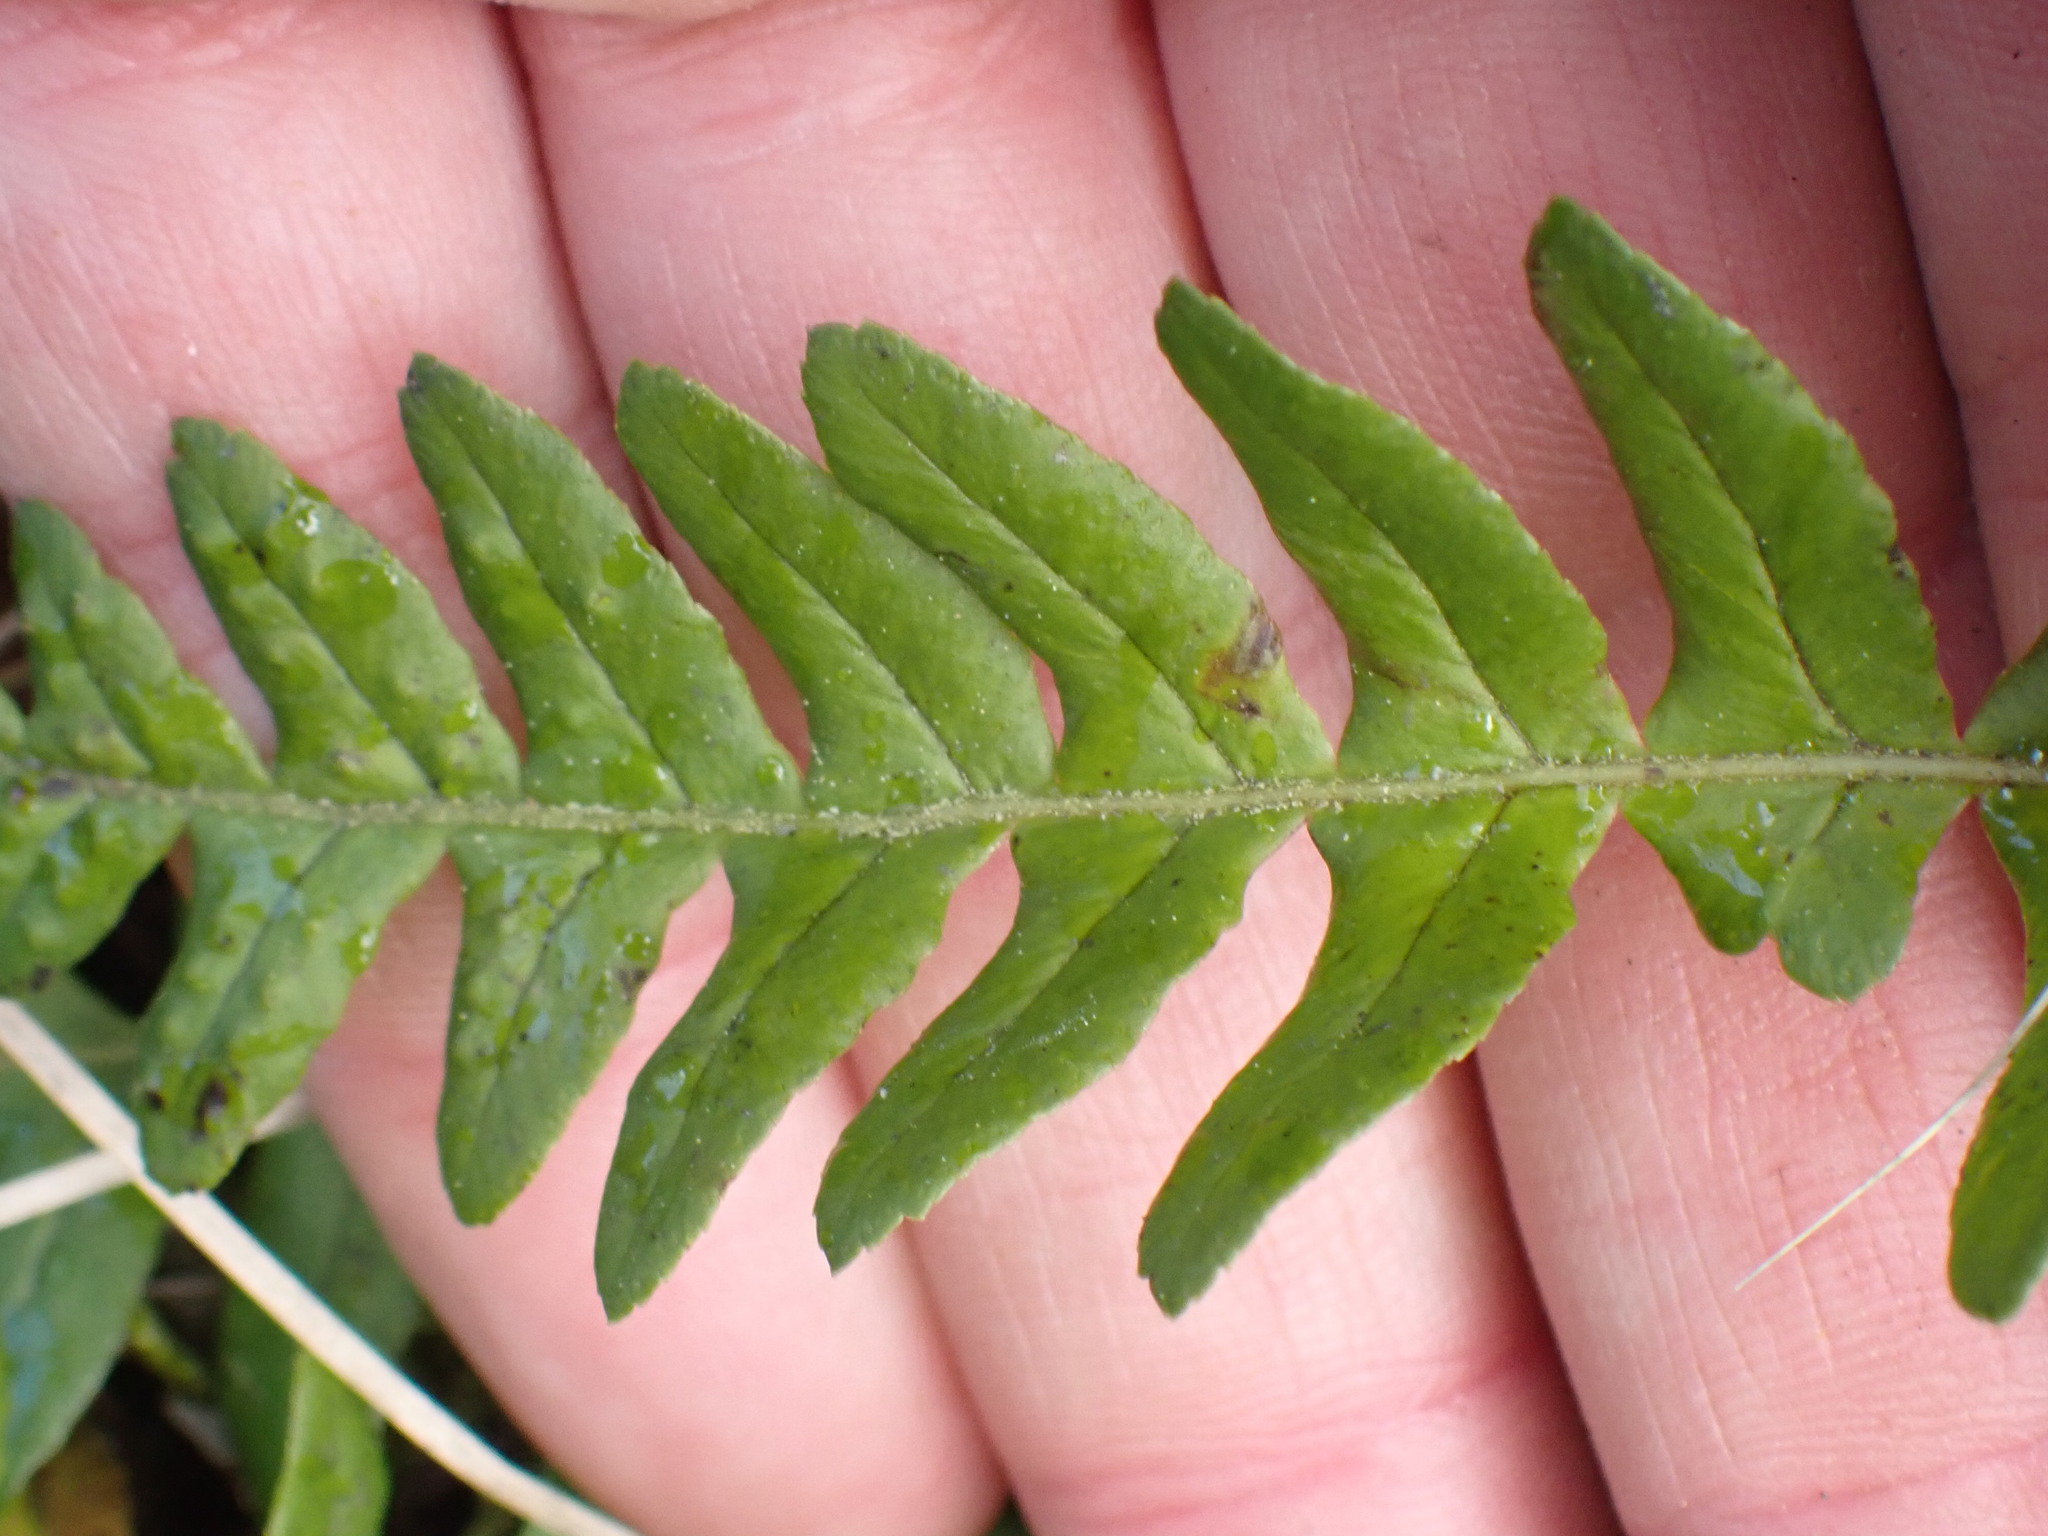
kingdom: Plantae
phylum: Tracheophyta
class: Polypodiopsida
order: Polypodiales
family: Polypodiaceae
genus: Polypodium
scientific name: Polypodium glycyrrhiza
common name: Licorice fern
